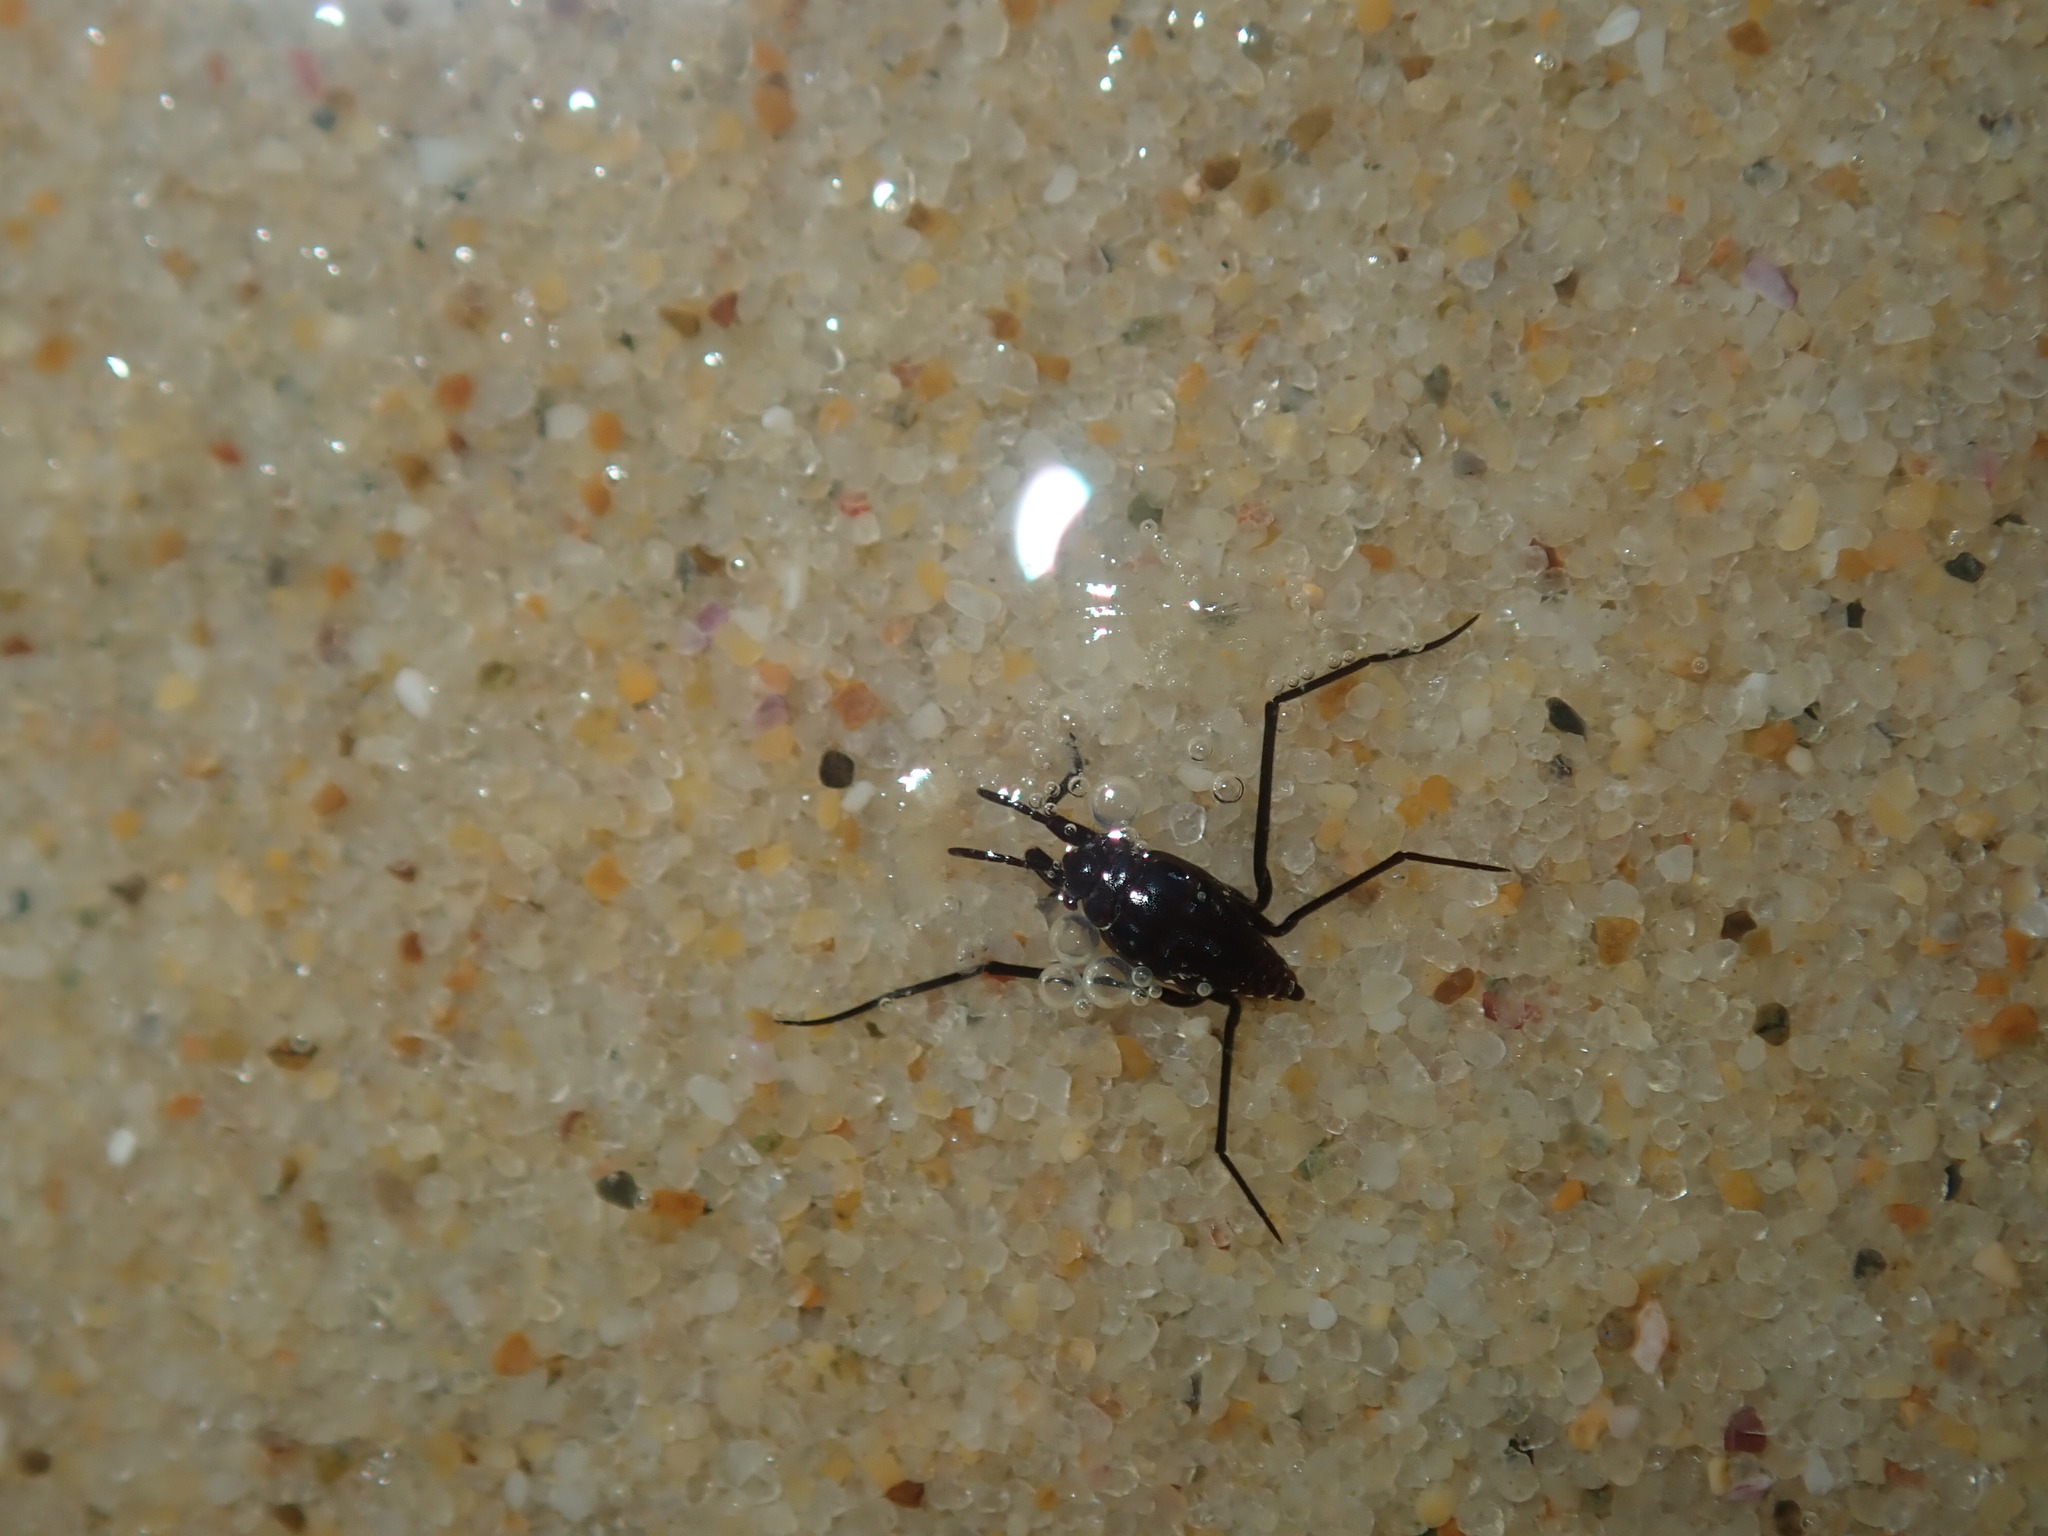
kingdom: Animalia
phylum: Arthropoda
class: Insecta
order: Hemiptera
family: Gerridae
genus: Halobates
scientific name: Halobates
